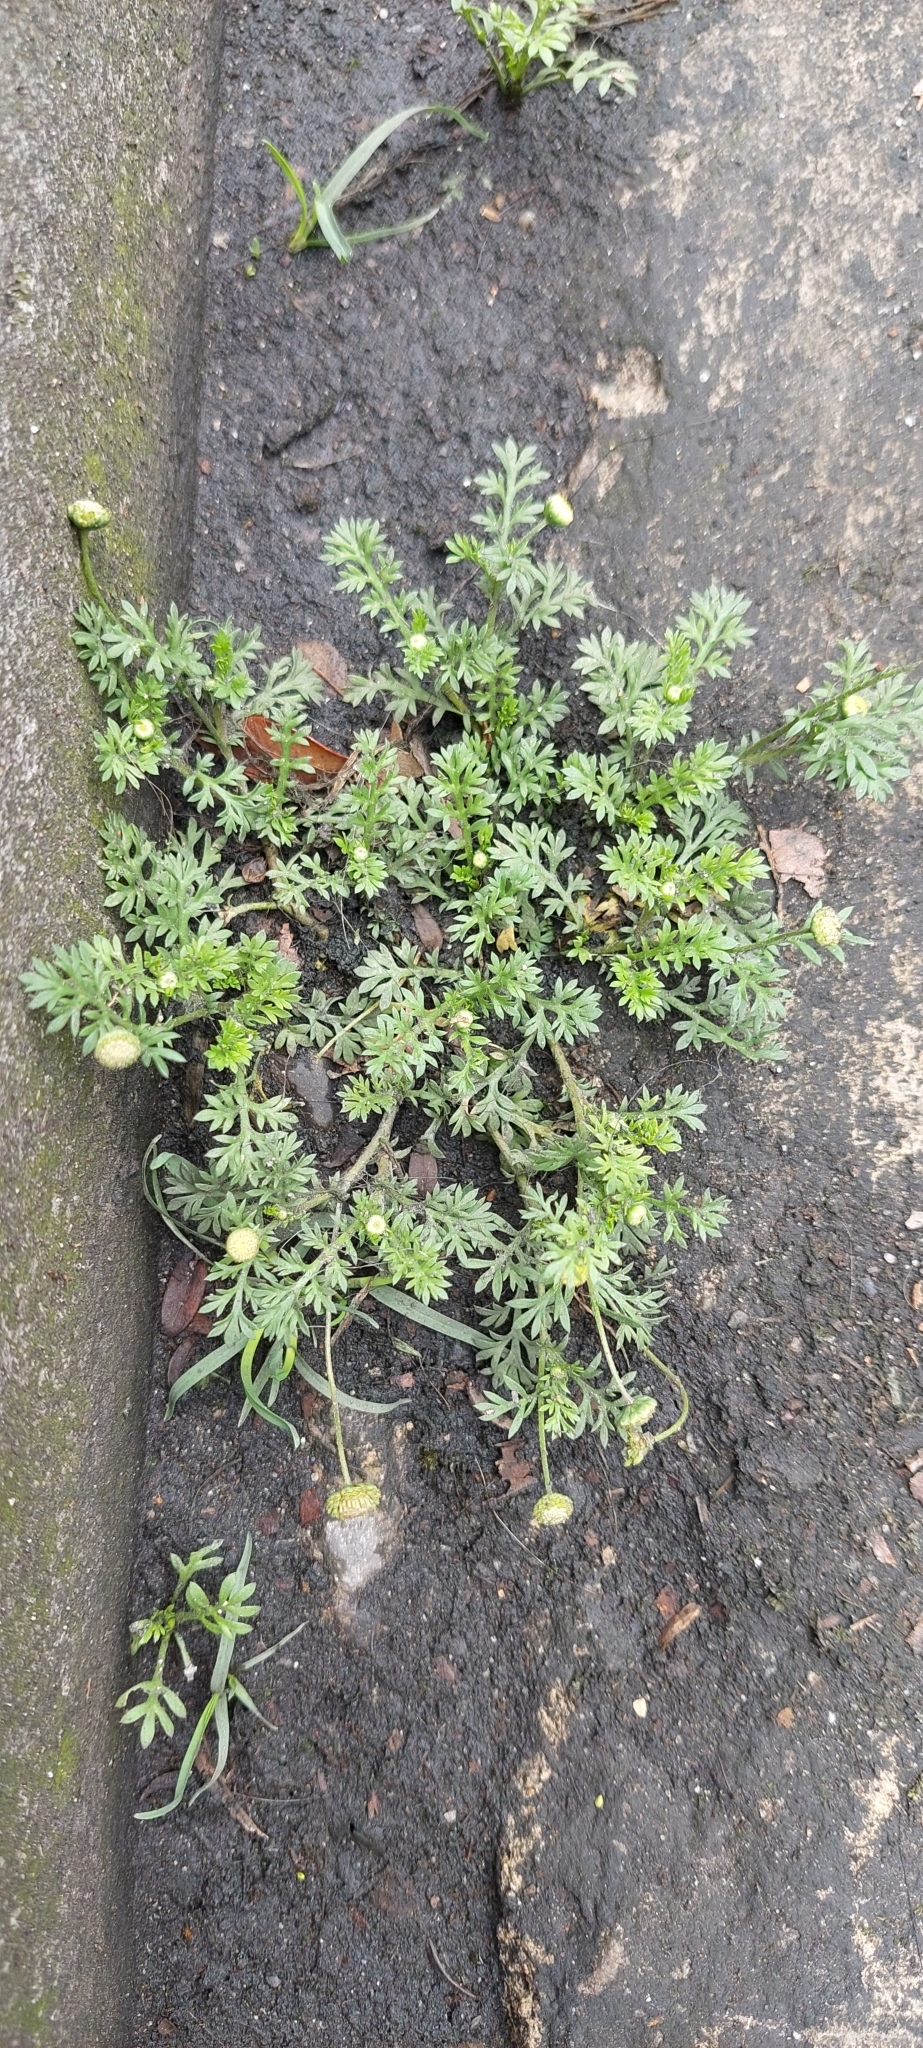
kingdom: Plantae
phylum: Tracheophyta
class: Magnoliopsida
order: Asterales
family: Asteraceae
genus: Cotula
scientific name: Cotula australis
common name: Australian waterbuttons
